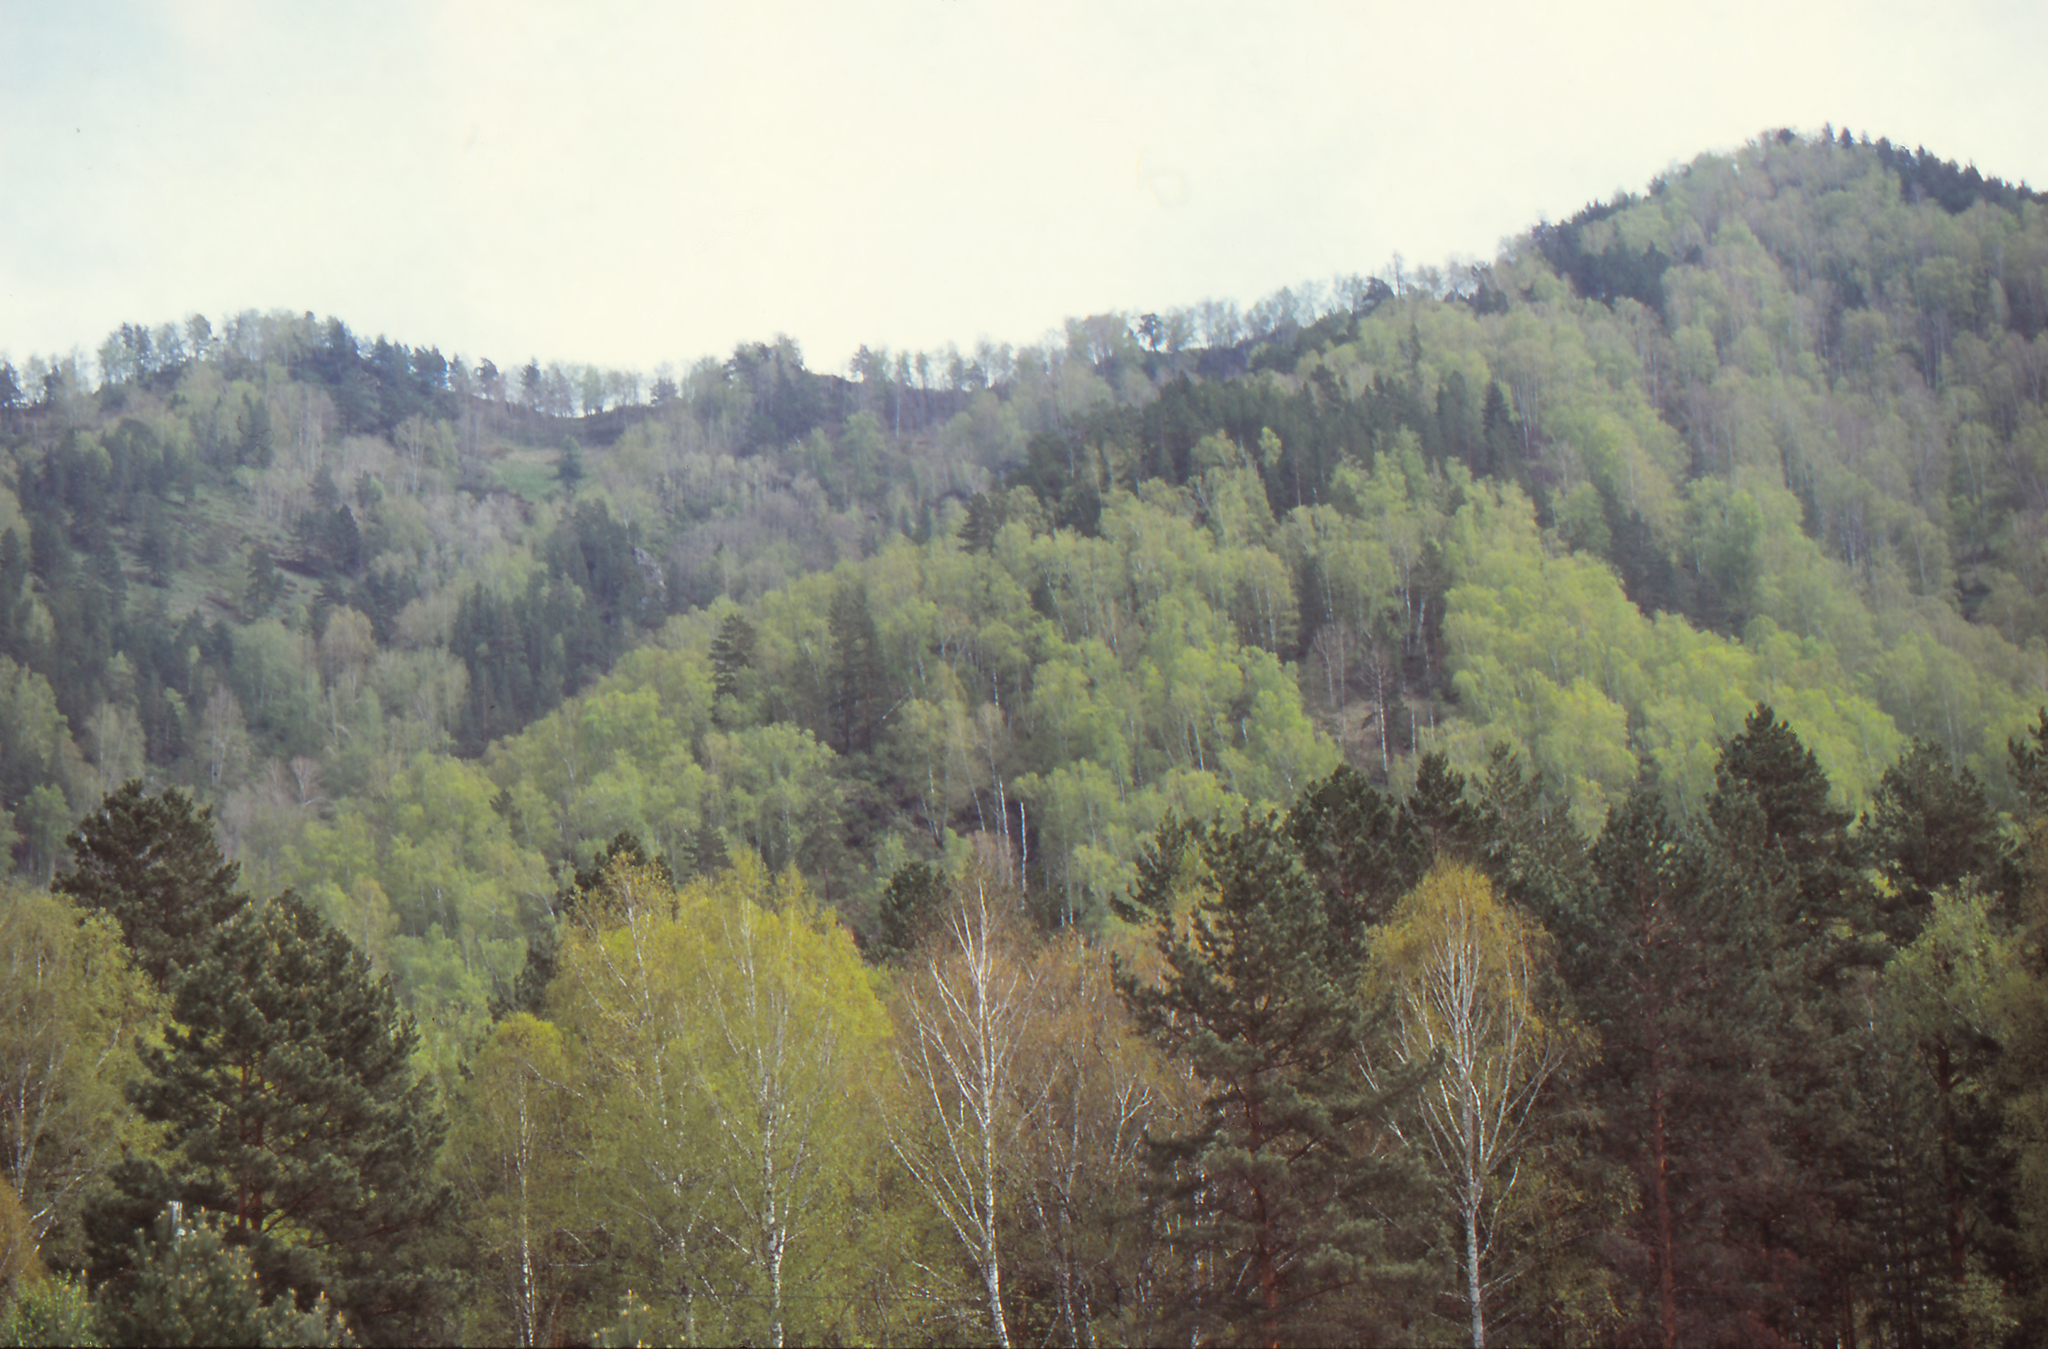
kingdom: Plantae
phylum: Tracheophyta
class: Pinopsida
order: Pinales
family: Pinaceae
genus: Pinus
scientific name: Pinus sylvestris
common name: Scots pine
